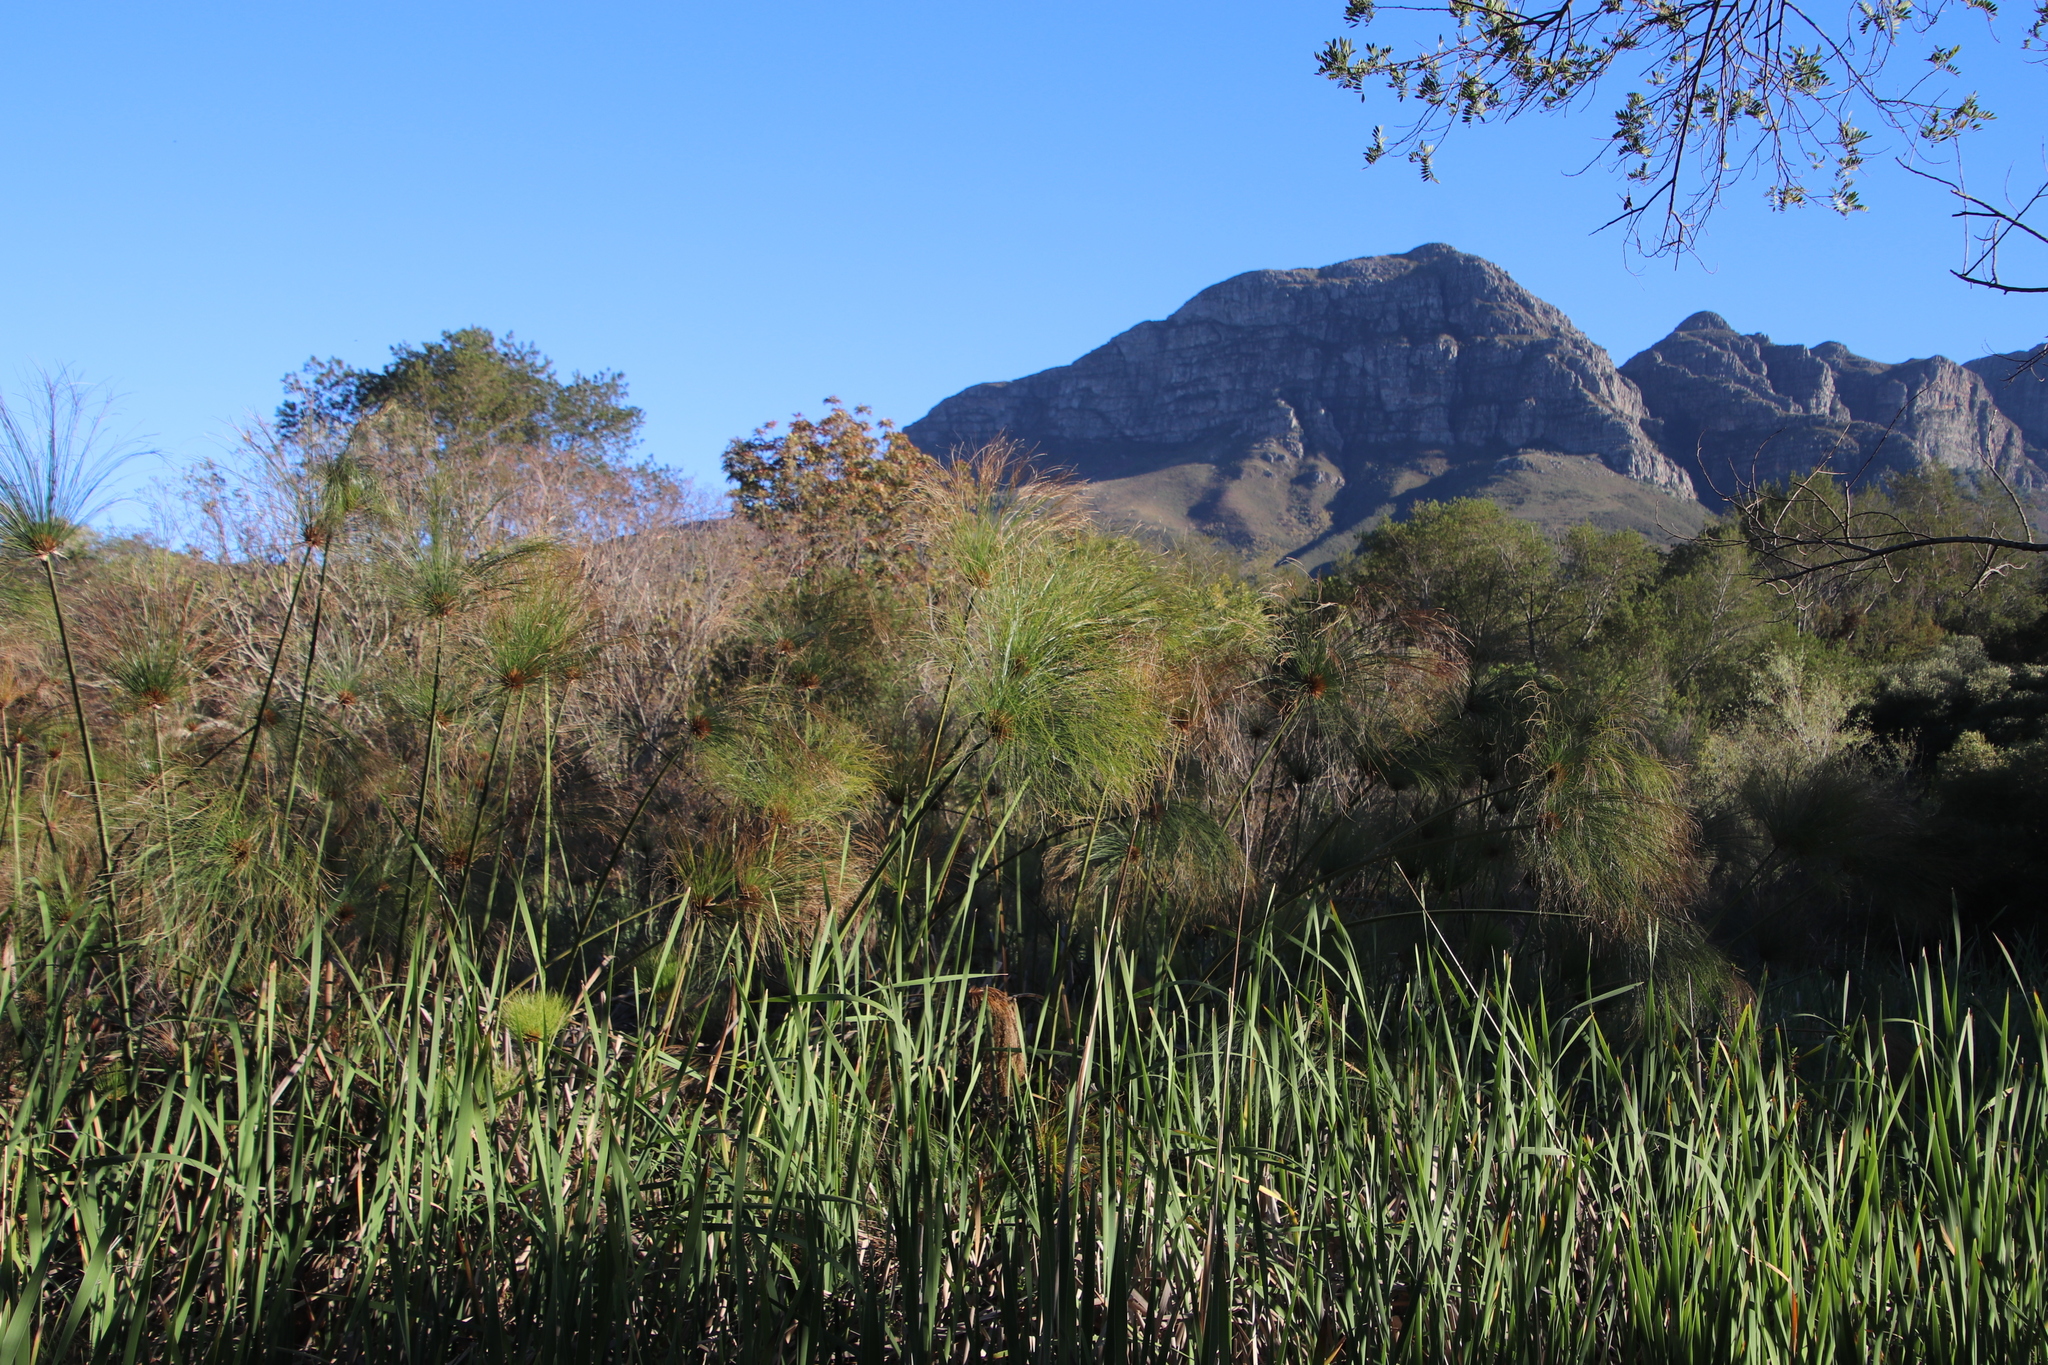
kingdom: Plantae
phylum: Tracheophyta
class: Liliopsida
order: Poales
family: Cyperaceae
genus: Cyperus
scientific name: Cyperus papyrus
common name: Papyrus
